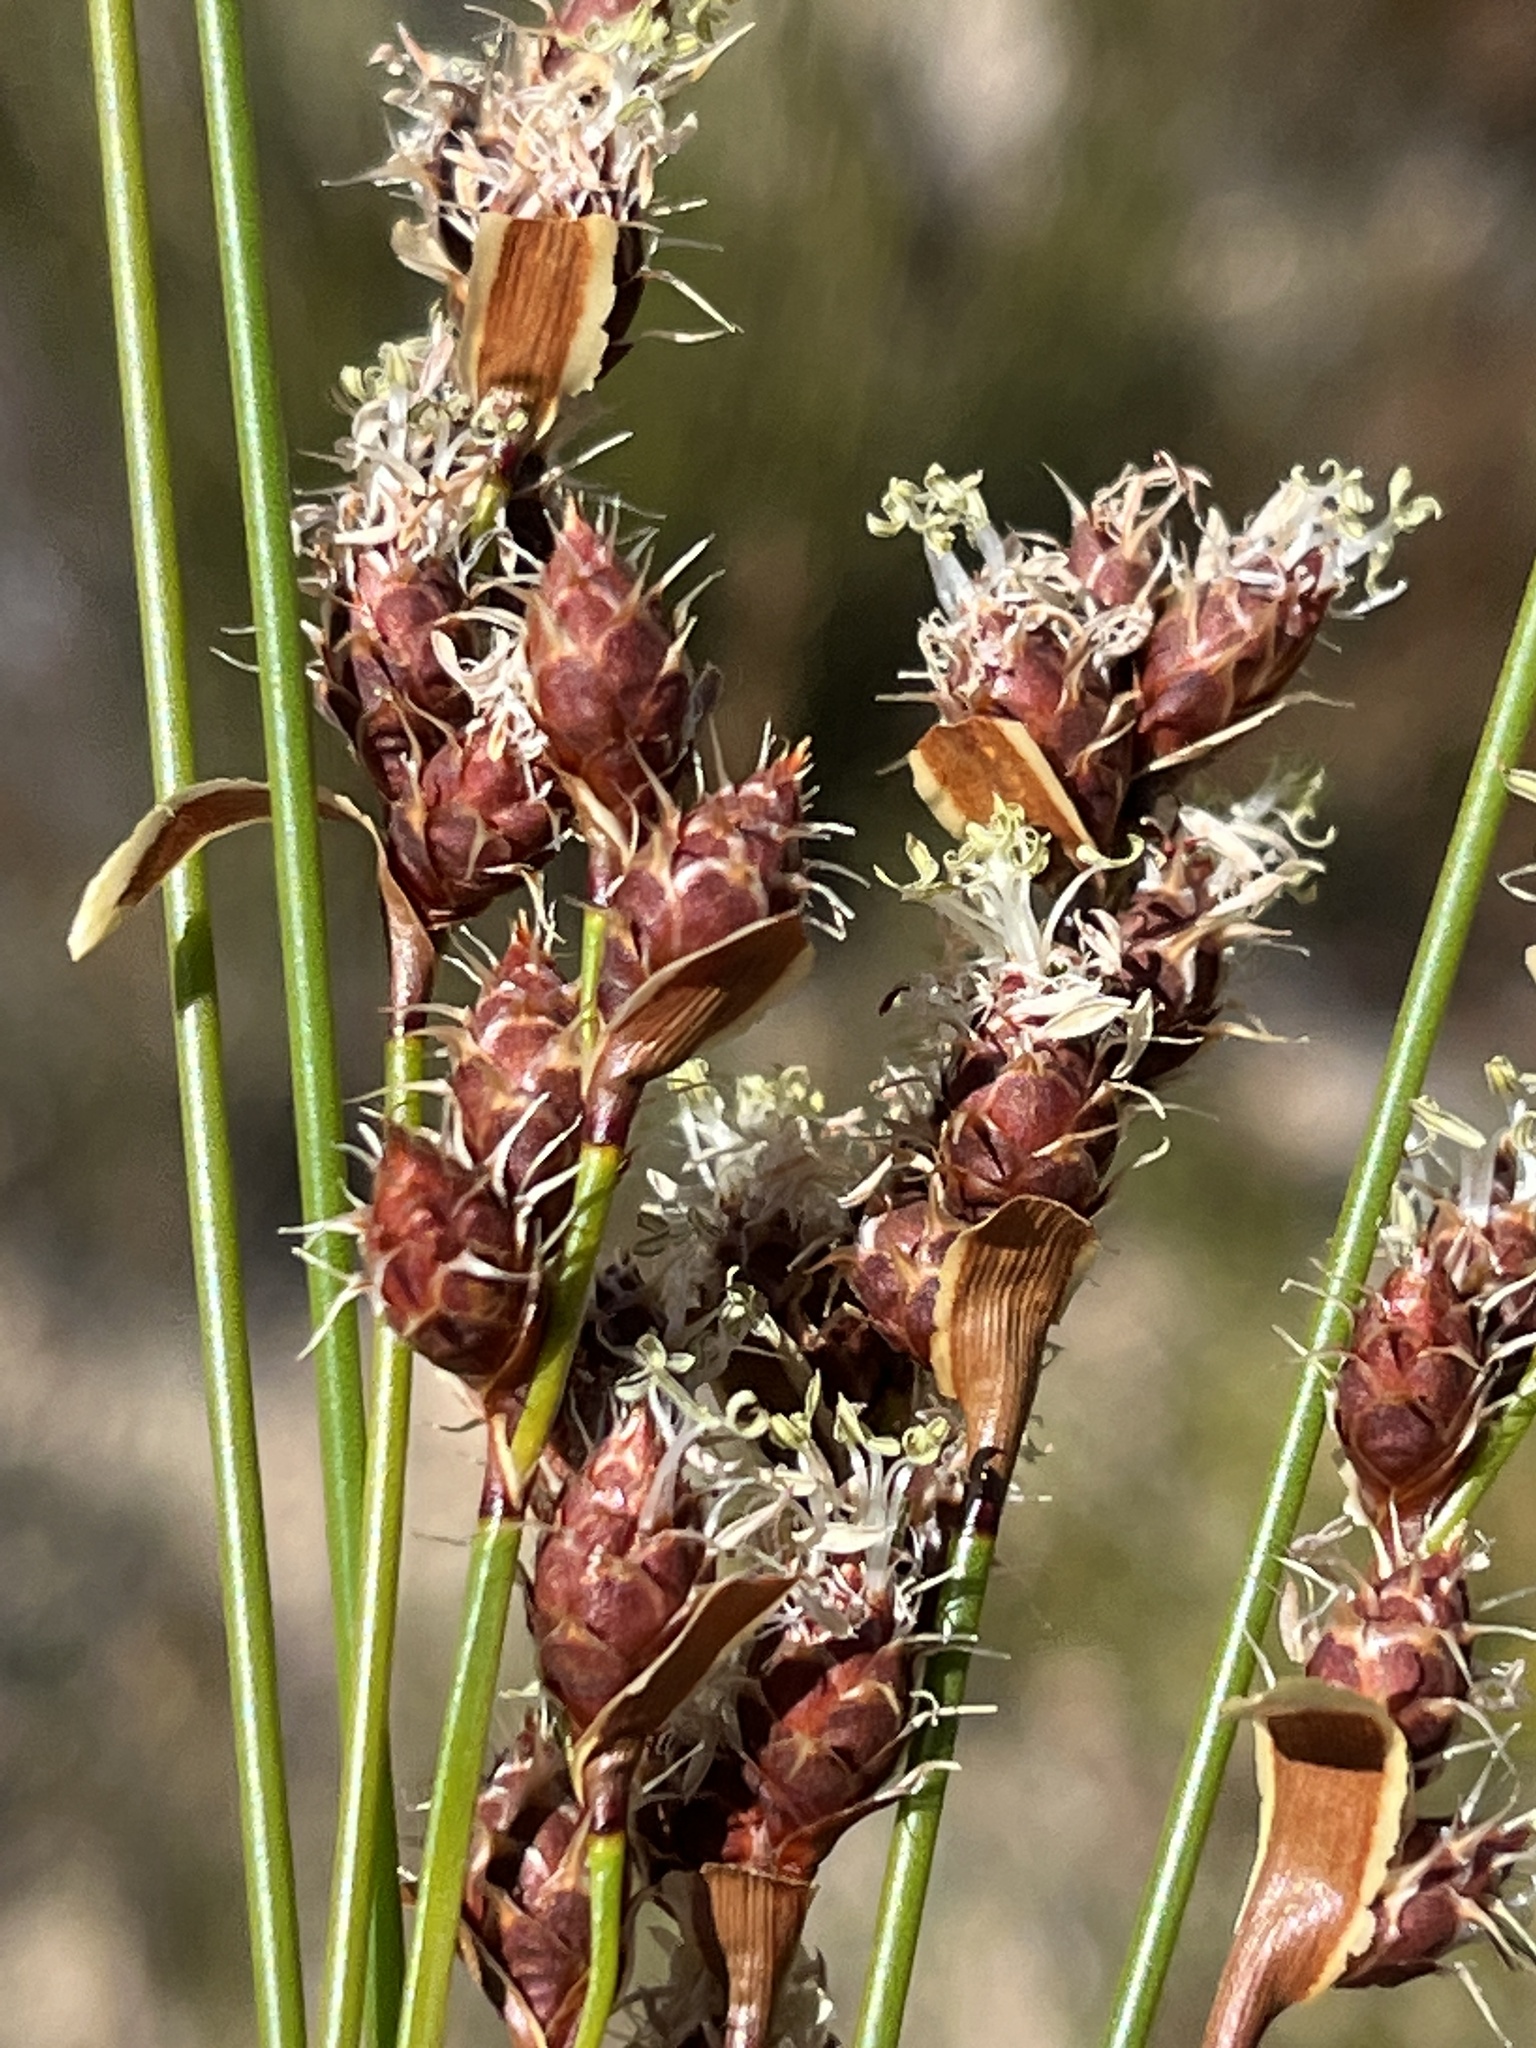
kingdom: Plantae
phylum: Tracheophyta
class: Liliopsida
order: Poales
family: Restionaceae
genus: Hypodiscus
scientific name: Hypodiscus synchroolepis
